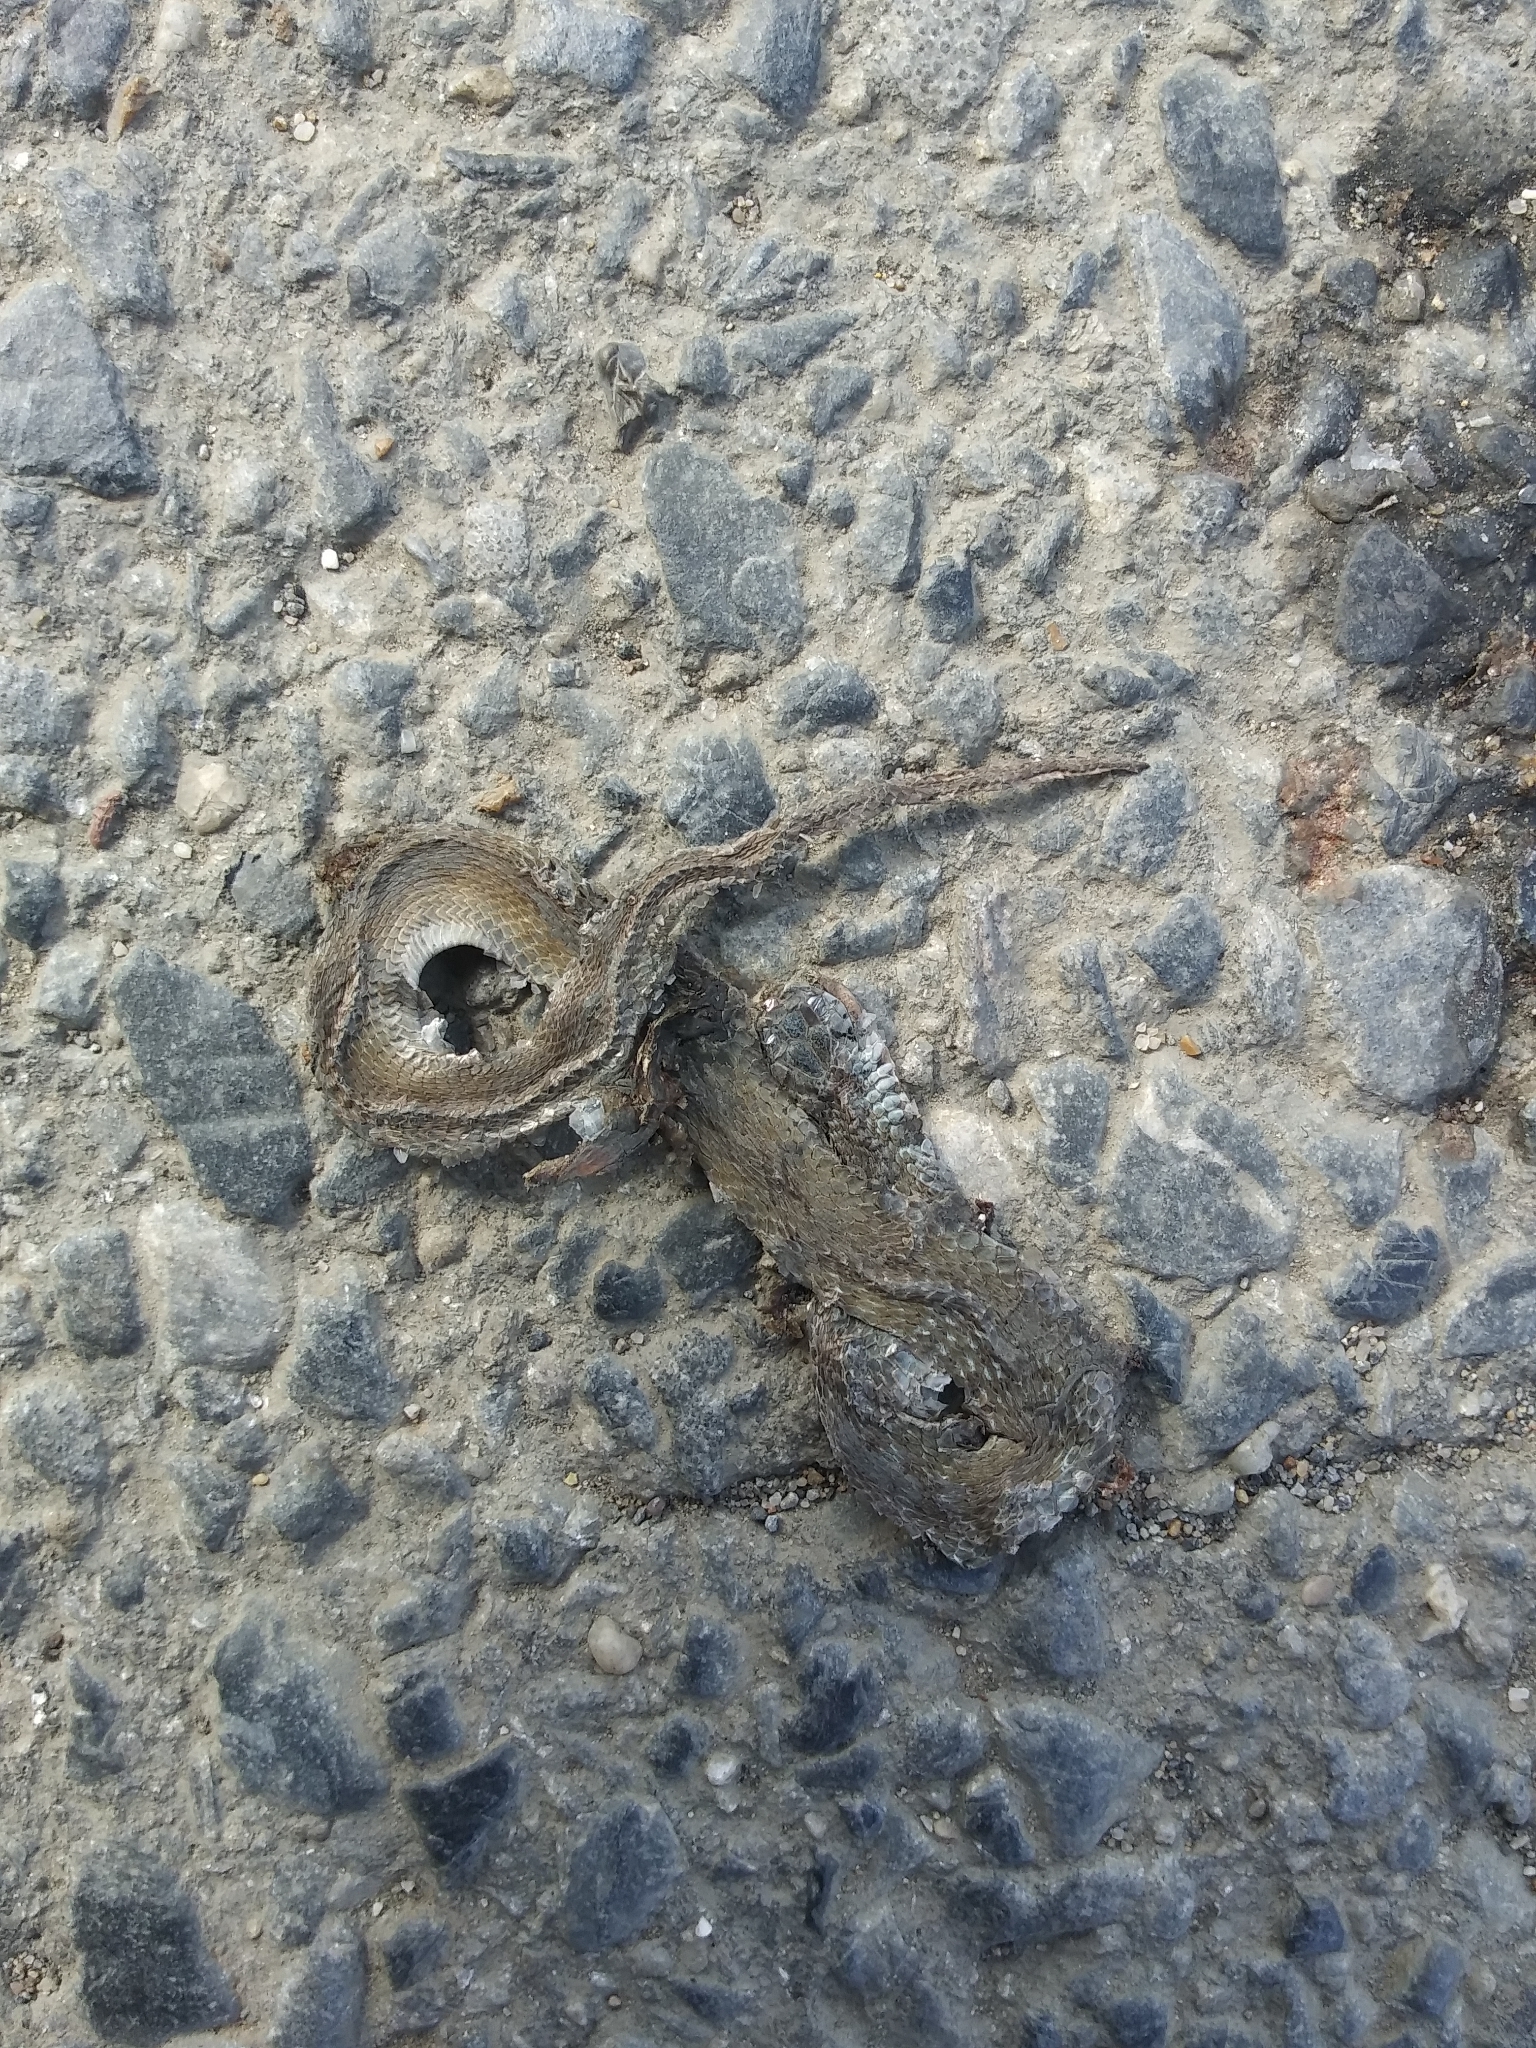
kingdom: Animalia
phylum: Chordata
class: Squamata
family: Colubridae
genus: Storeria
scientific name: Storeria dekayi
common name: (dekay’s) brown snake
